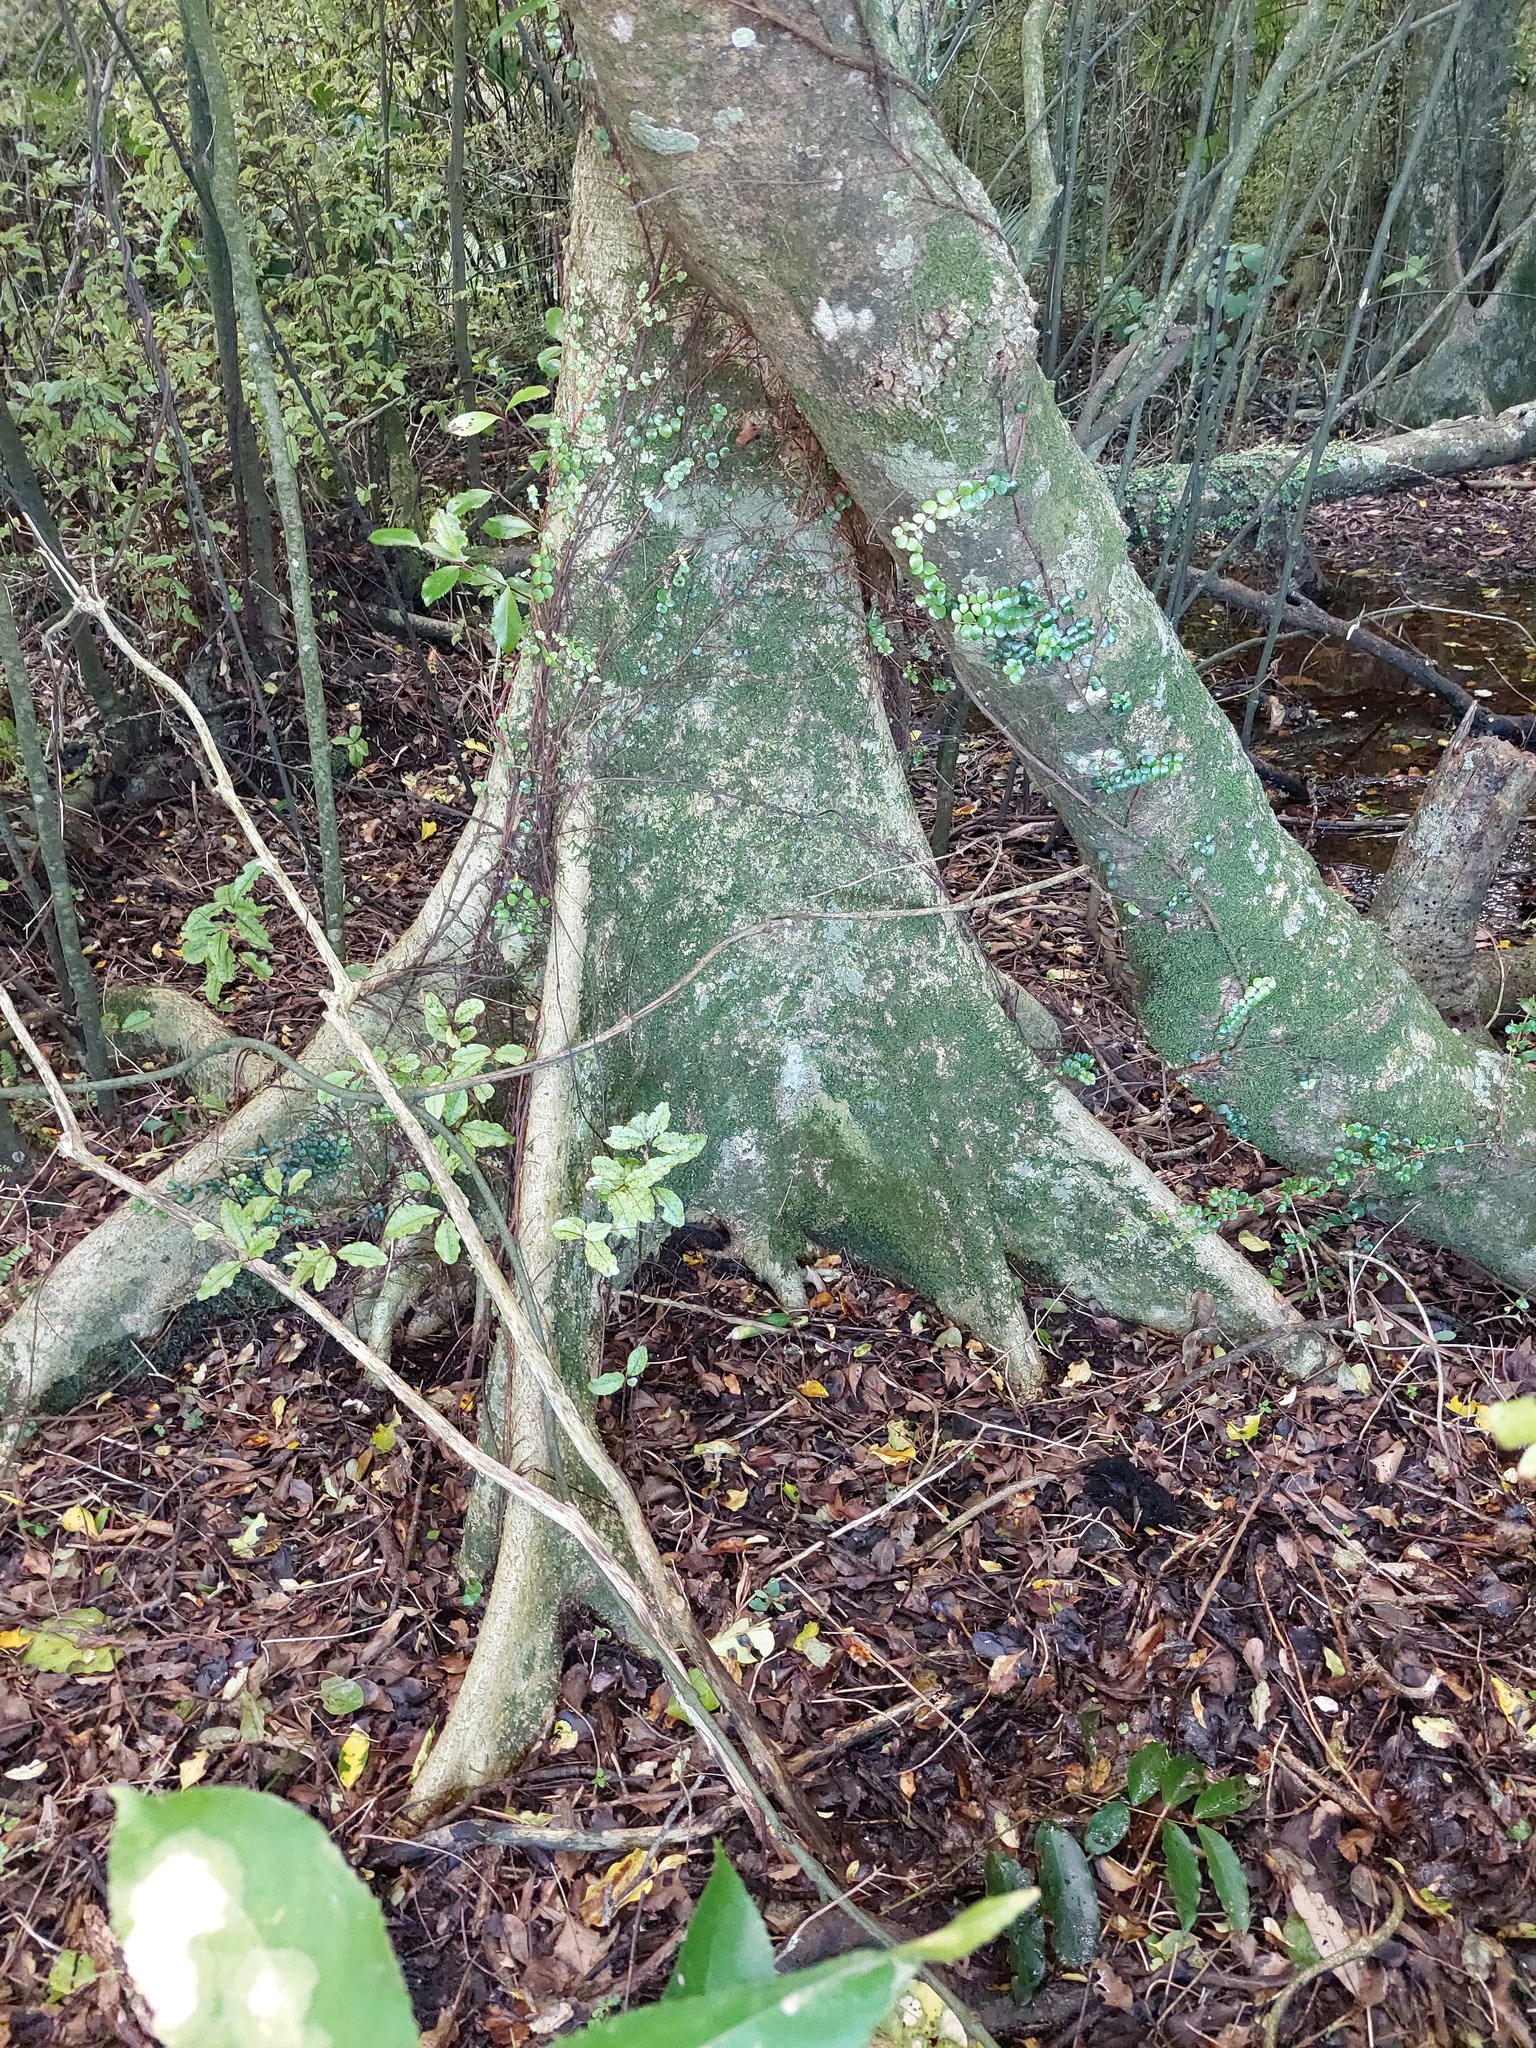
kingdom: Plantae
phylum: Tracheophyta
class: Magnoliopsida
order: Laurales
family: Atherospermataceae
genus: Laurelia
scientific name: Laurelia novae-zelandiae
